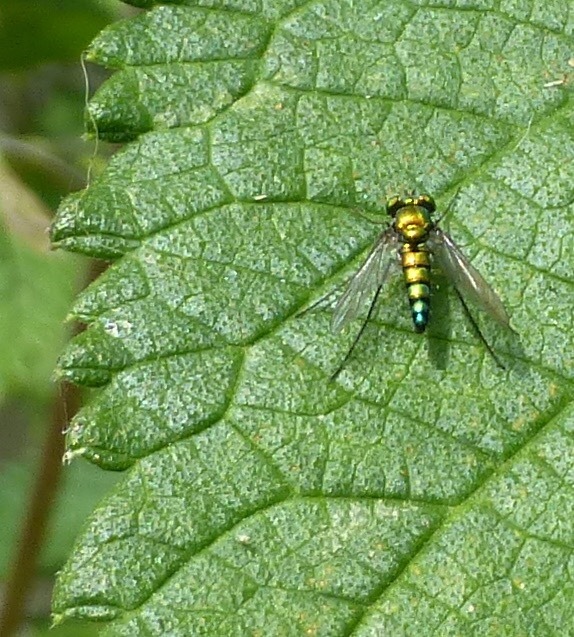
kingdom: Animalia
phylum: Arthropoda
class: Insecta
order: Diptera
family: Dolichopodidae
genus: Condylostylus
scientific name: Condylostylus longicornis
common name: Long-legged fly
